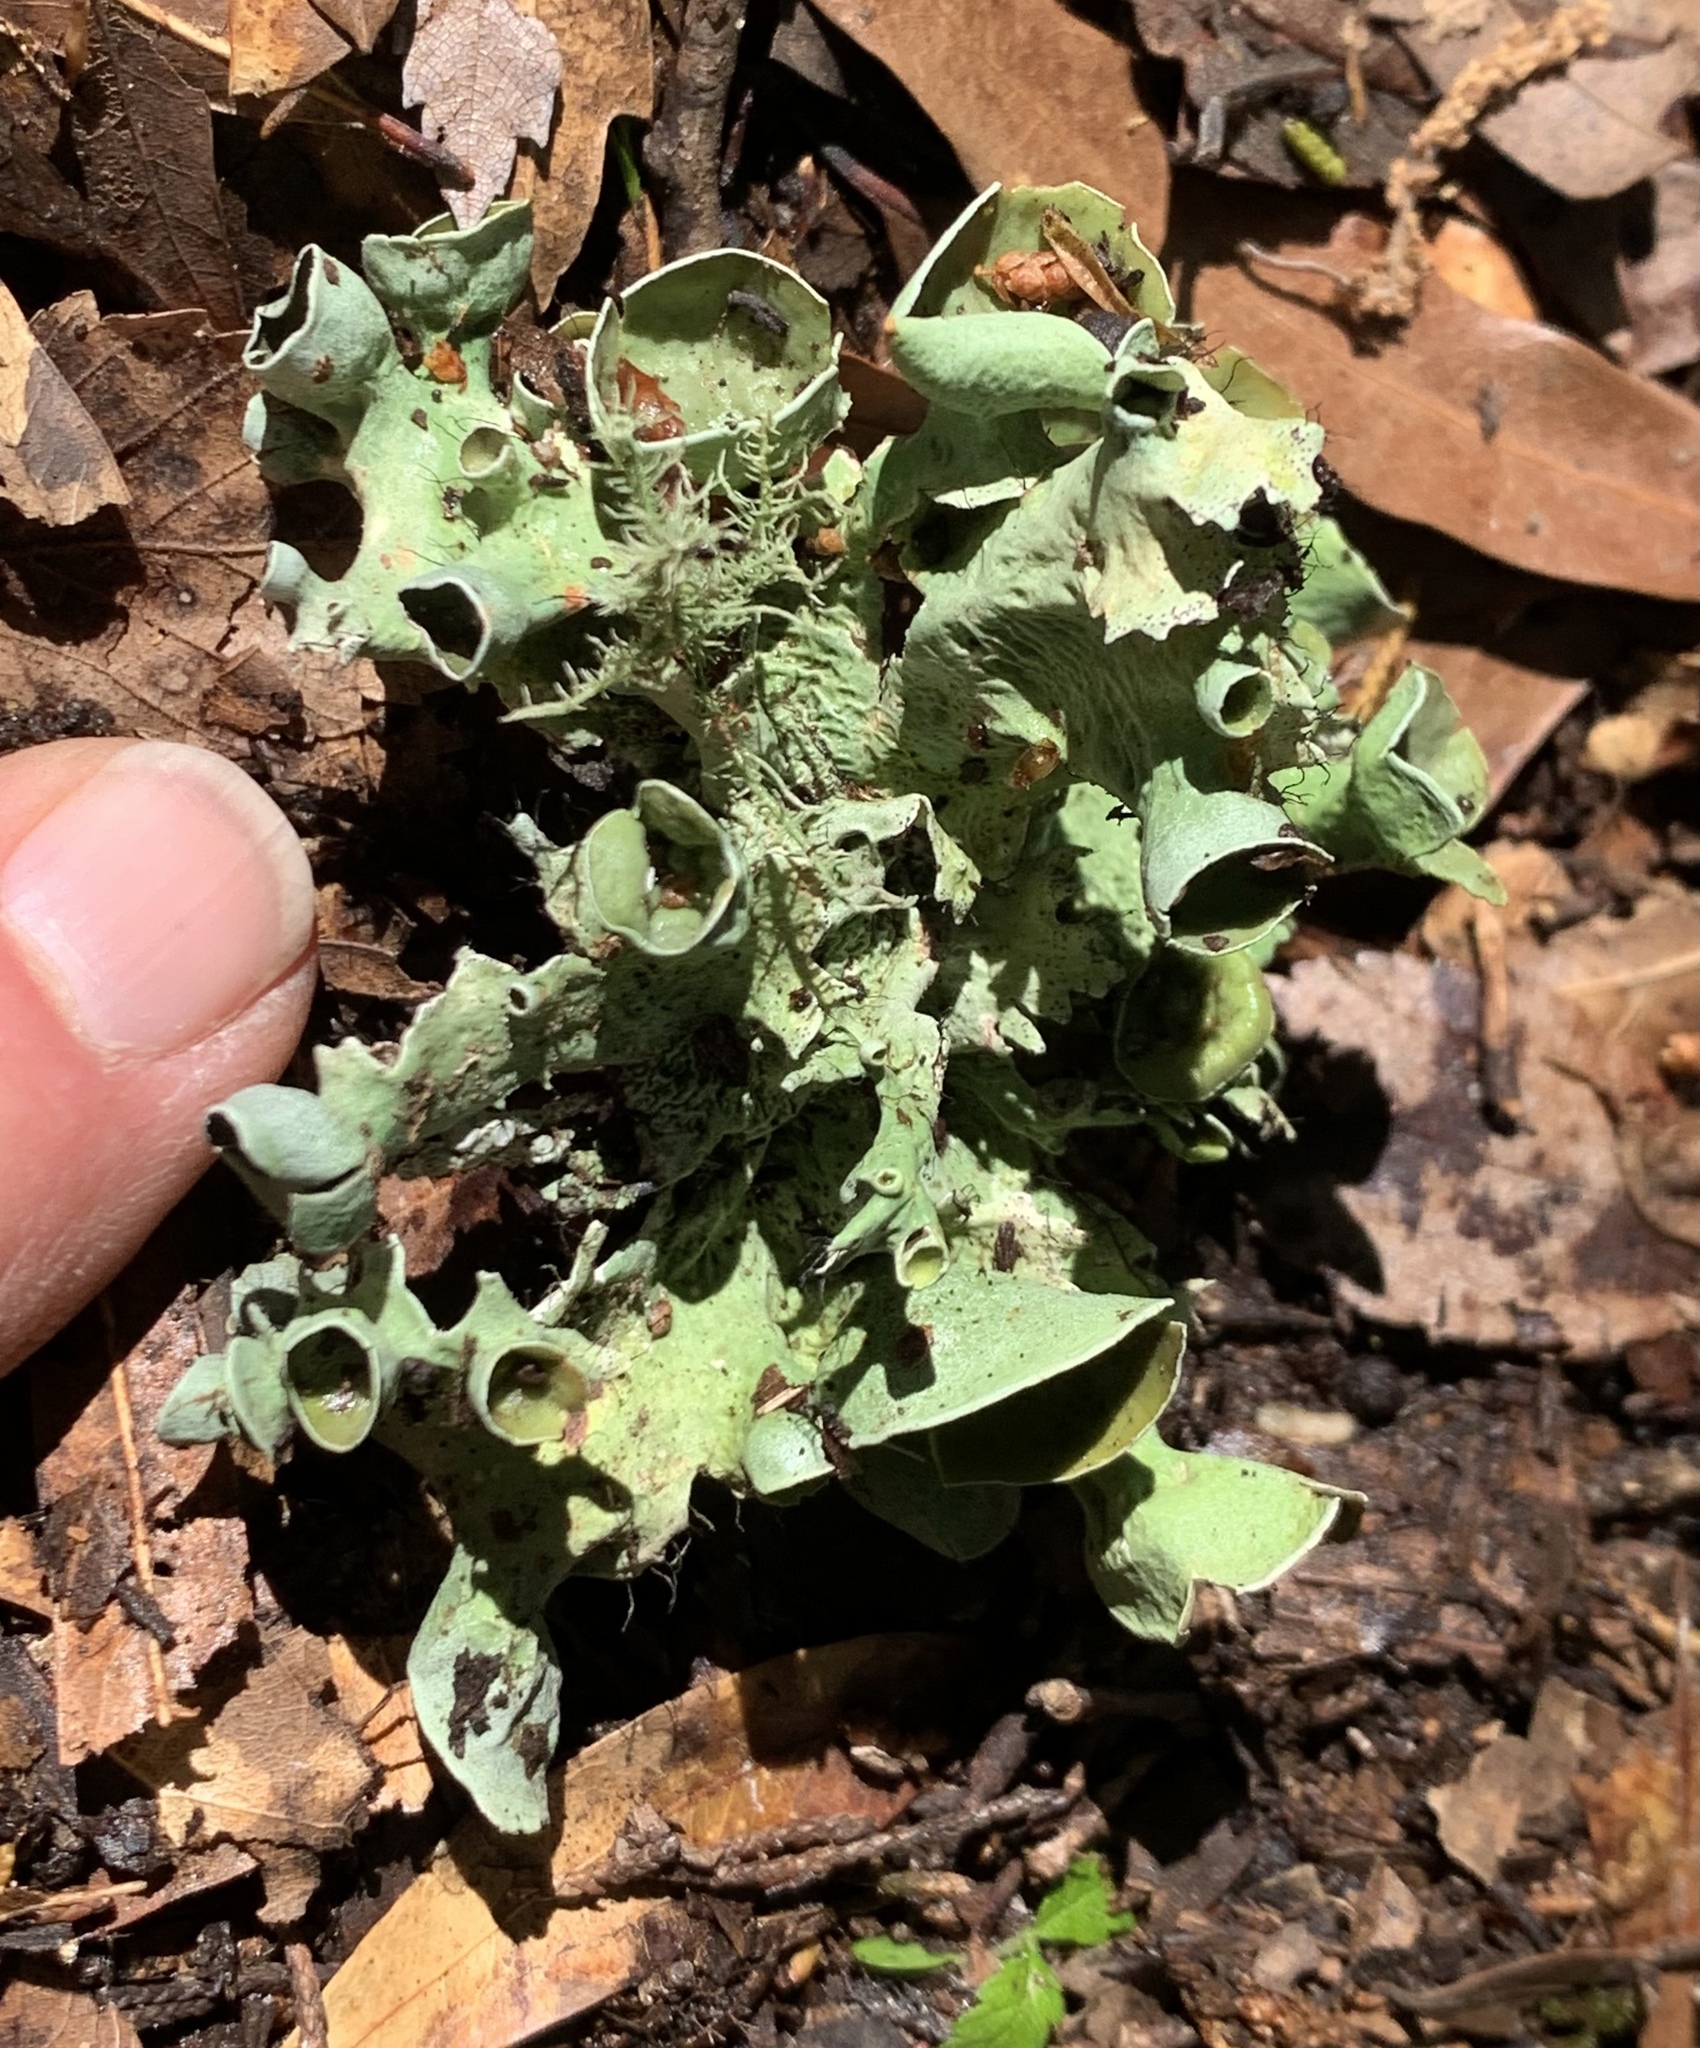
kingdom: Fungi
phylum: Ascomycota
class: Lecanoromycetes
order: Lecanorales
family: Parmeliaceae
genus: Parmotrema
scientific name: Parmotrema perforatum
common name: Perforated ruffle lichen
